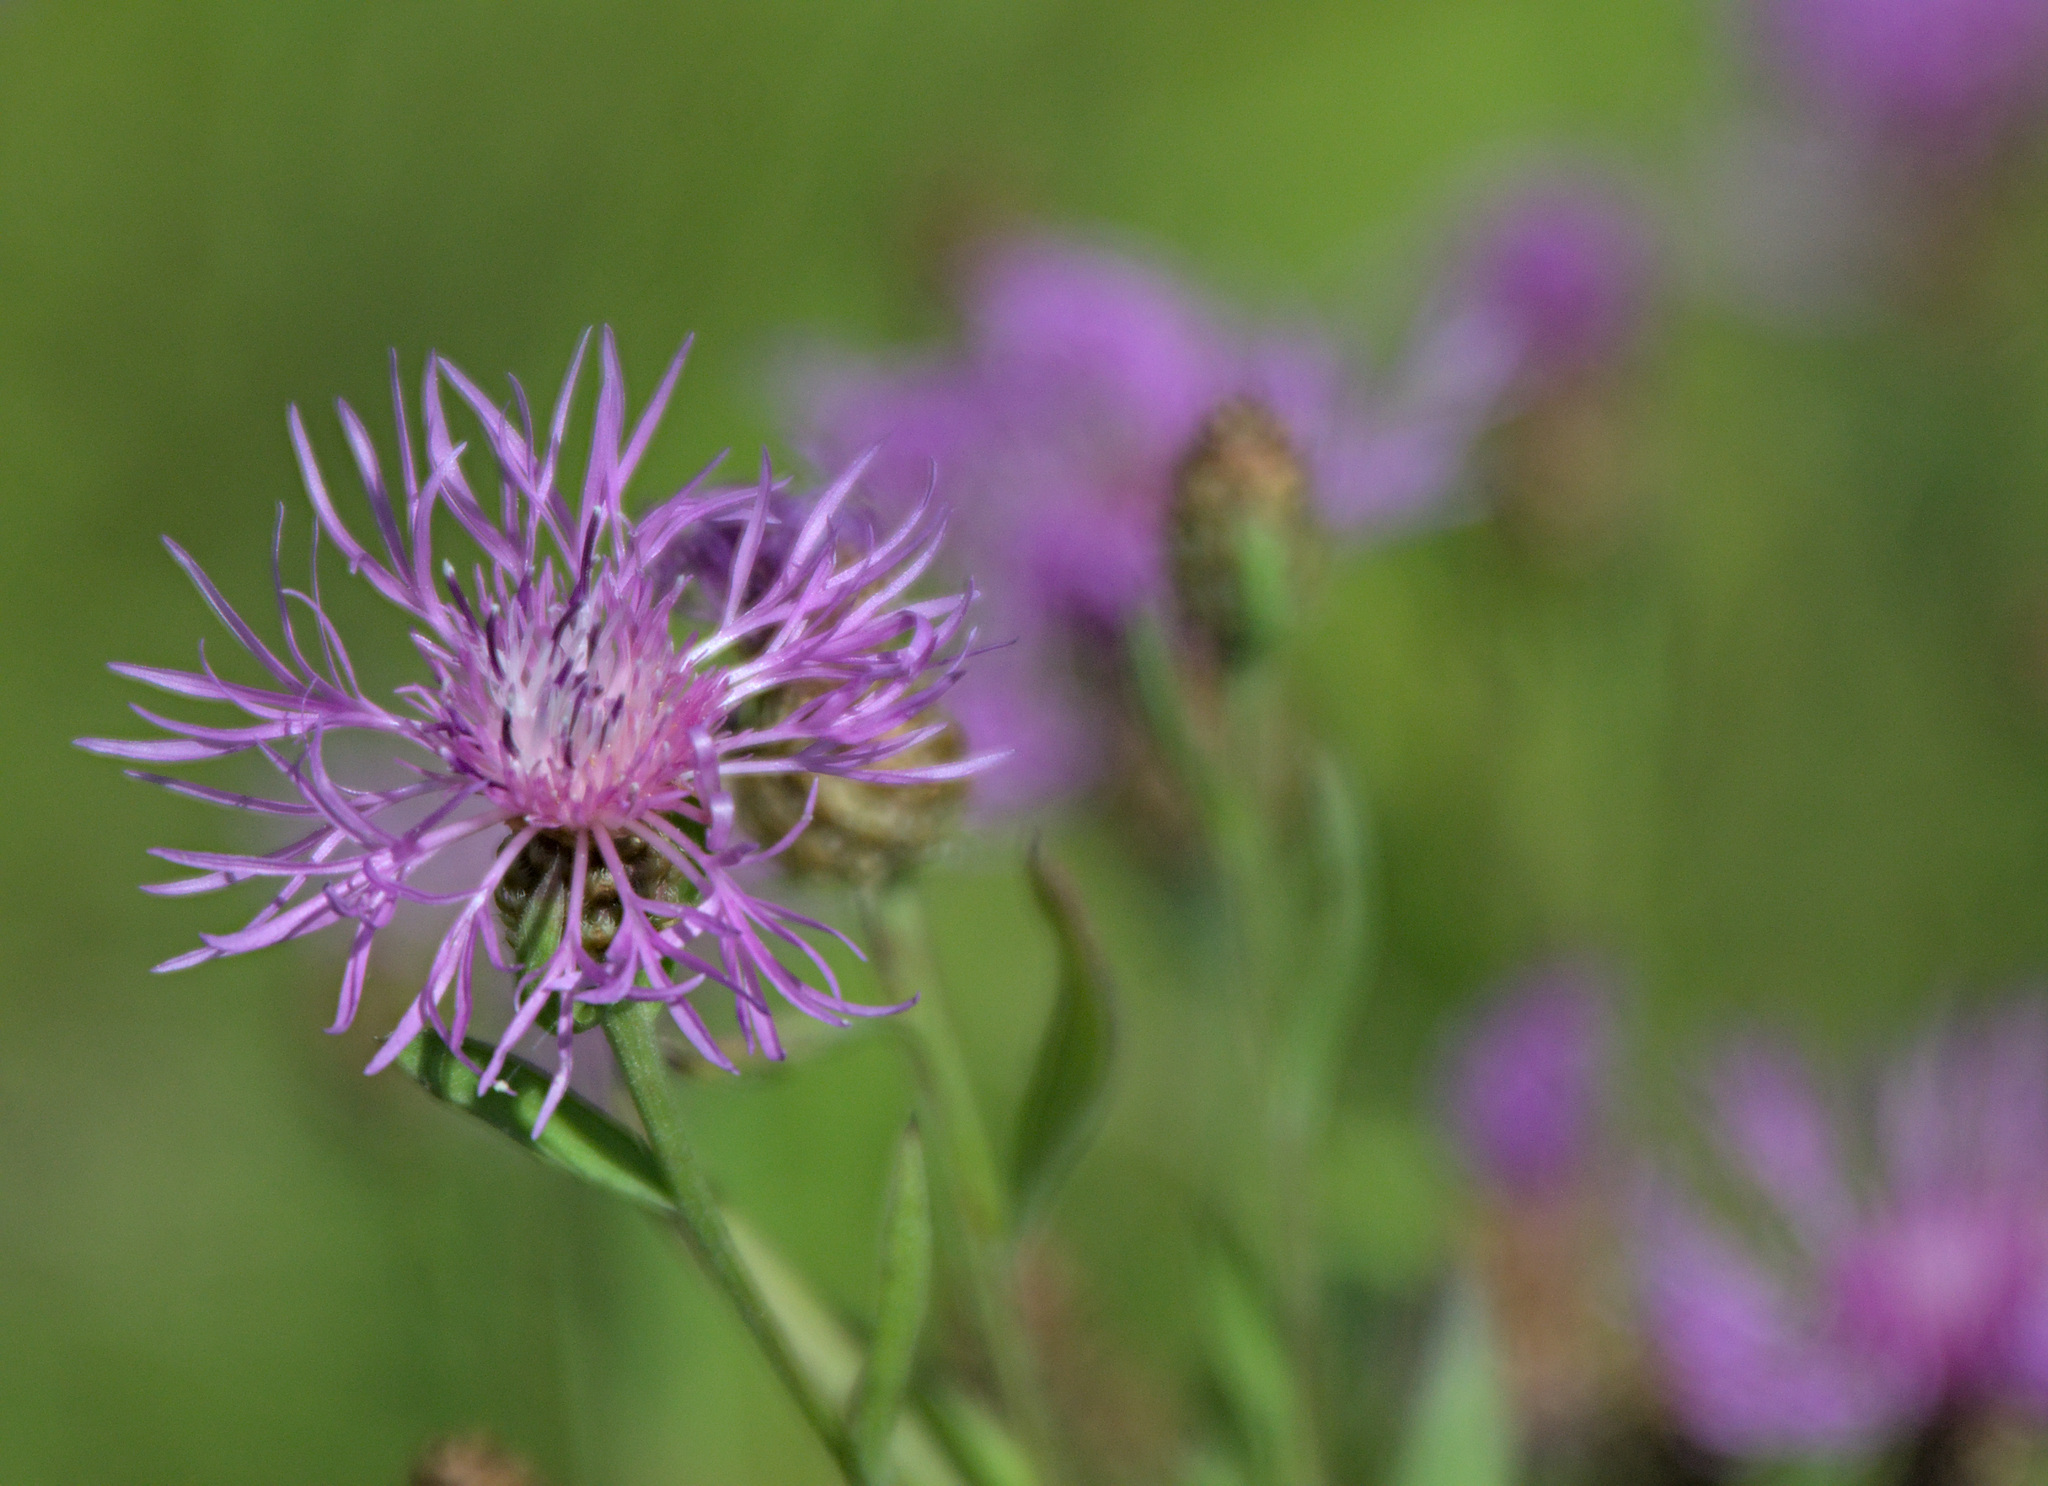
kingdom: Plantae
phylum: Tracheophyta
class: Magnoliopsida
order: Asterales
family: Asteraceae
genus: Centaurea
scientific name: Centaurea jacea
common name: Brown knapweed
